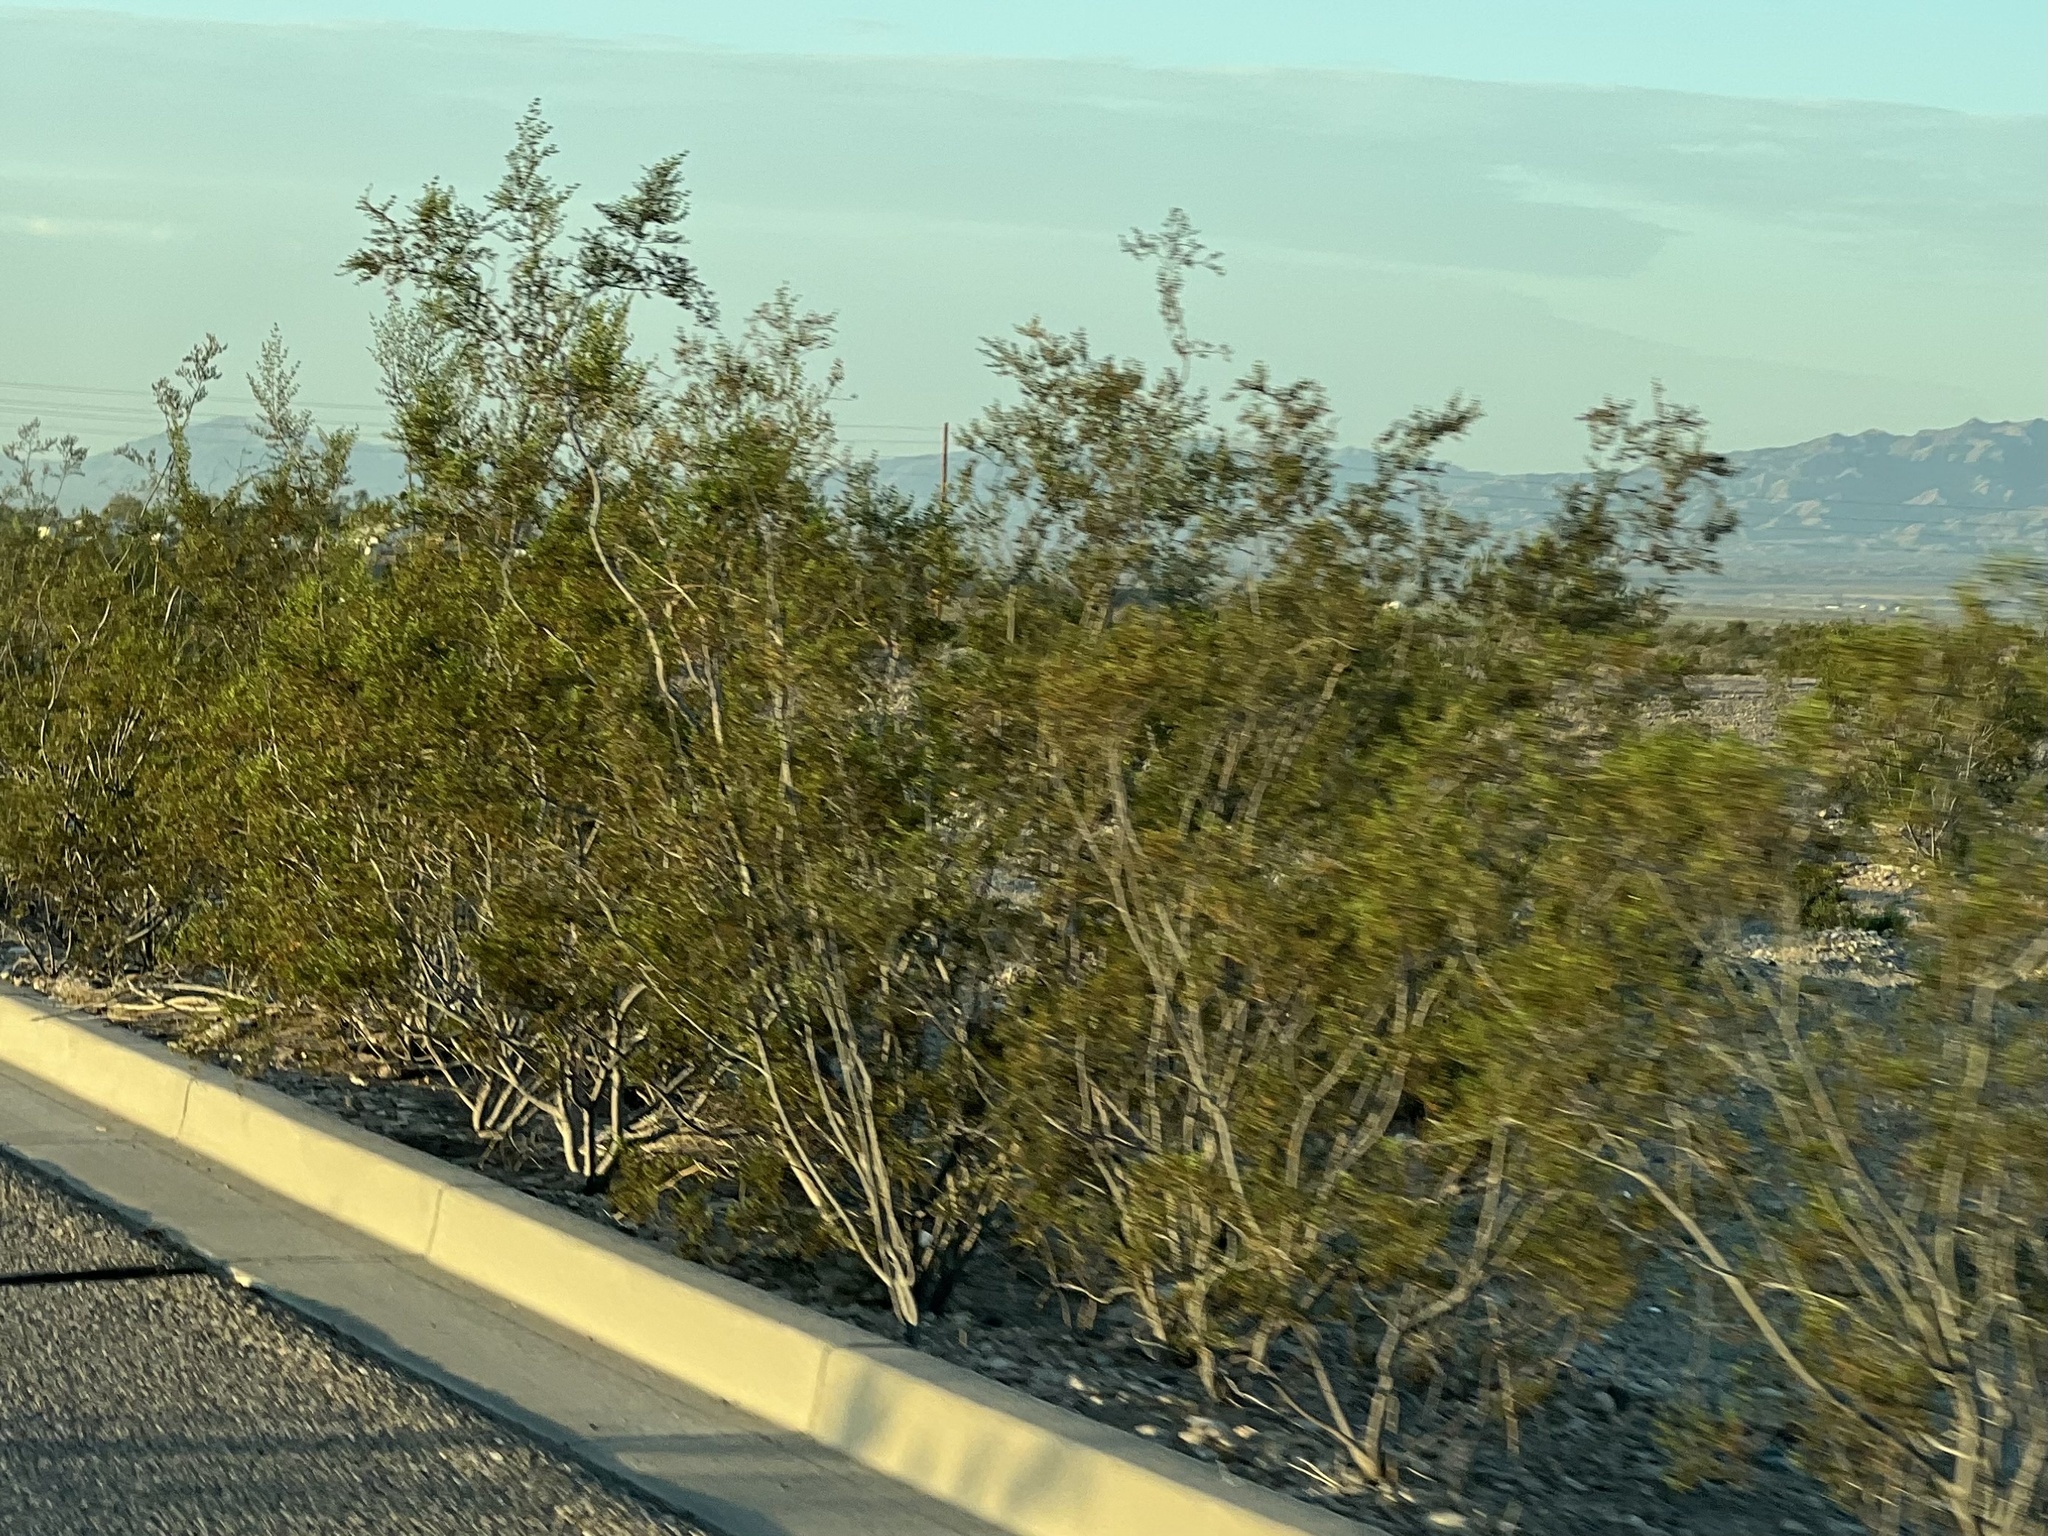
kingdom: Plantae
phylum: Tracheophyta
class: Magnoliopsida
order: Zygophyllales
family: Zygophyllaceae
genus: Larrea
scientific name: Larrea tridentata
